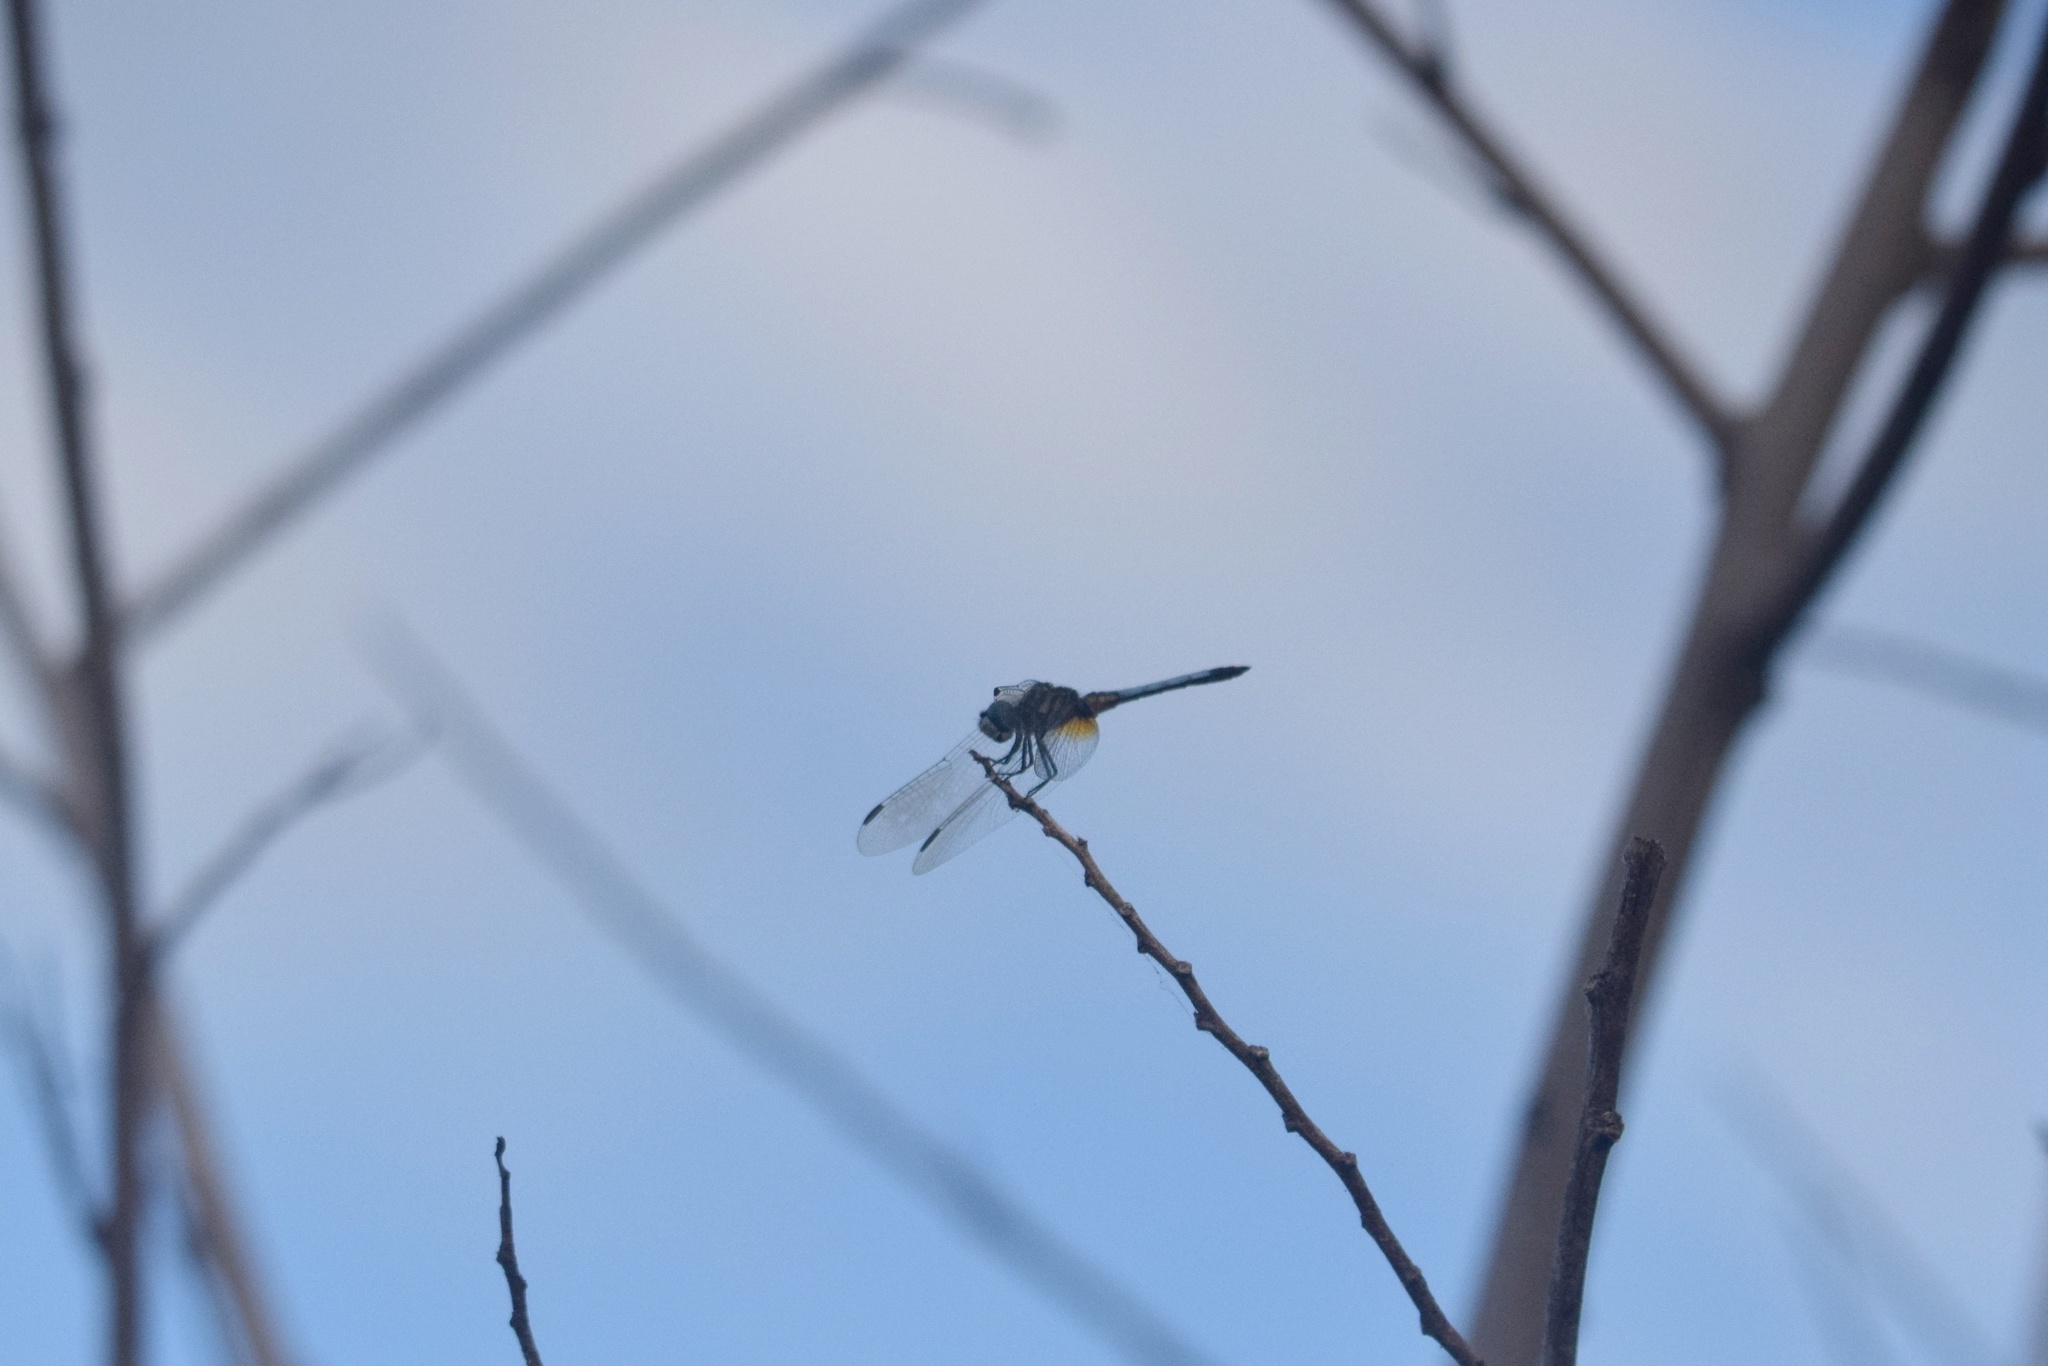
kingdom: Animalia
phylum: Arthropoda
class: Insecta
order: Odonata
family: Libellulidae
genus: Pachydiplax
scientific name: Pachydiplax longipennis
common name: Blue dasher
